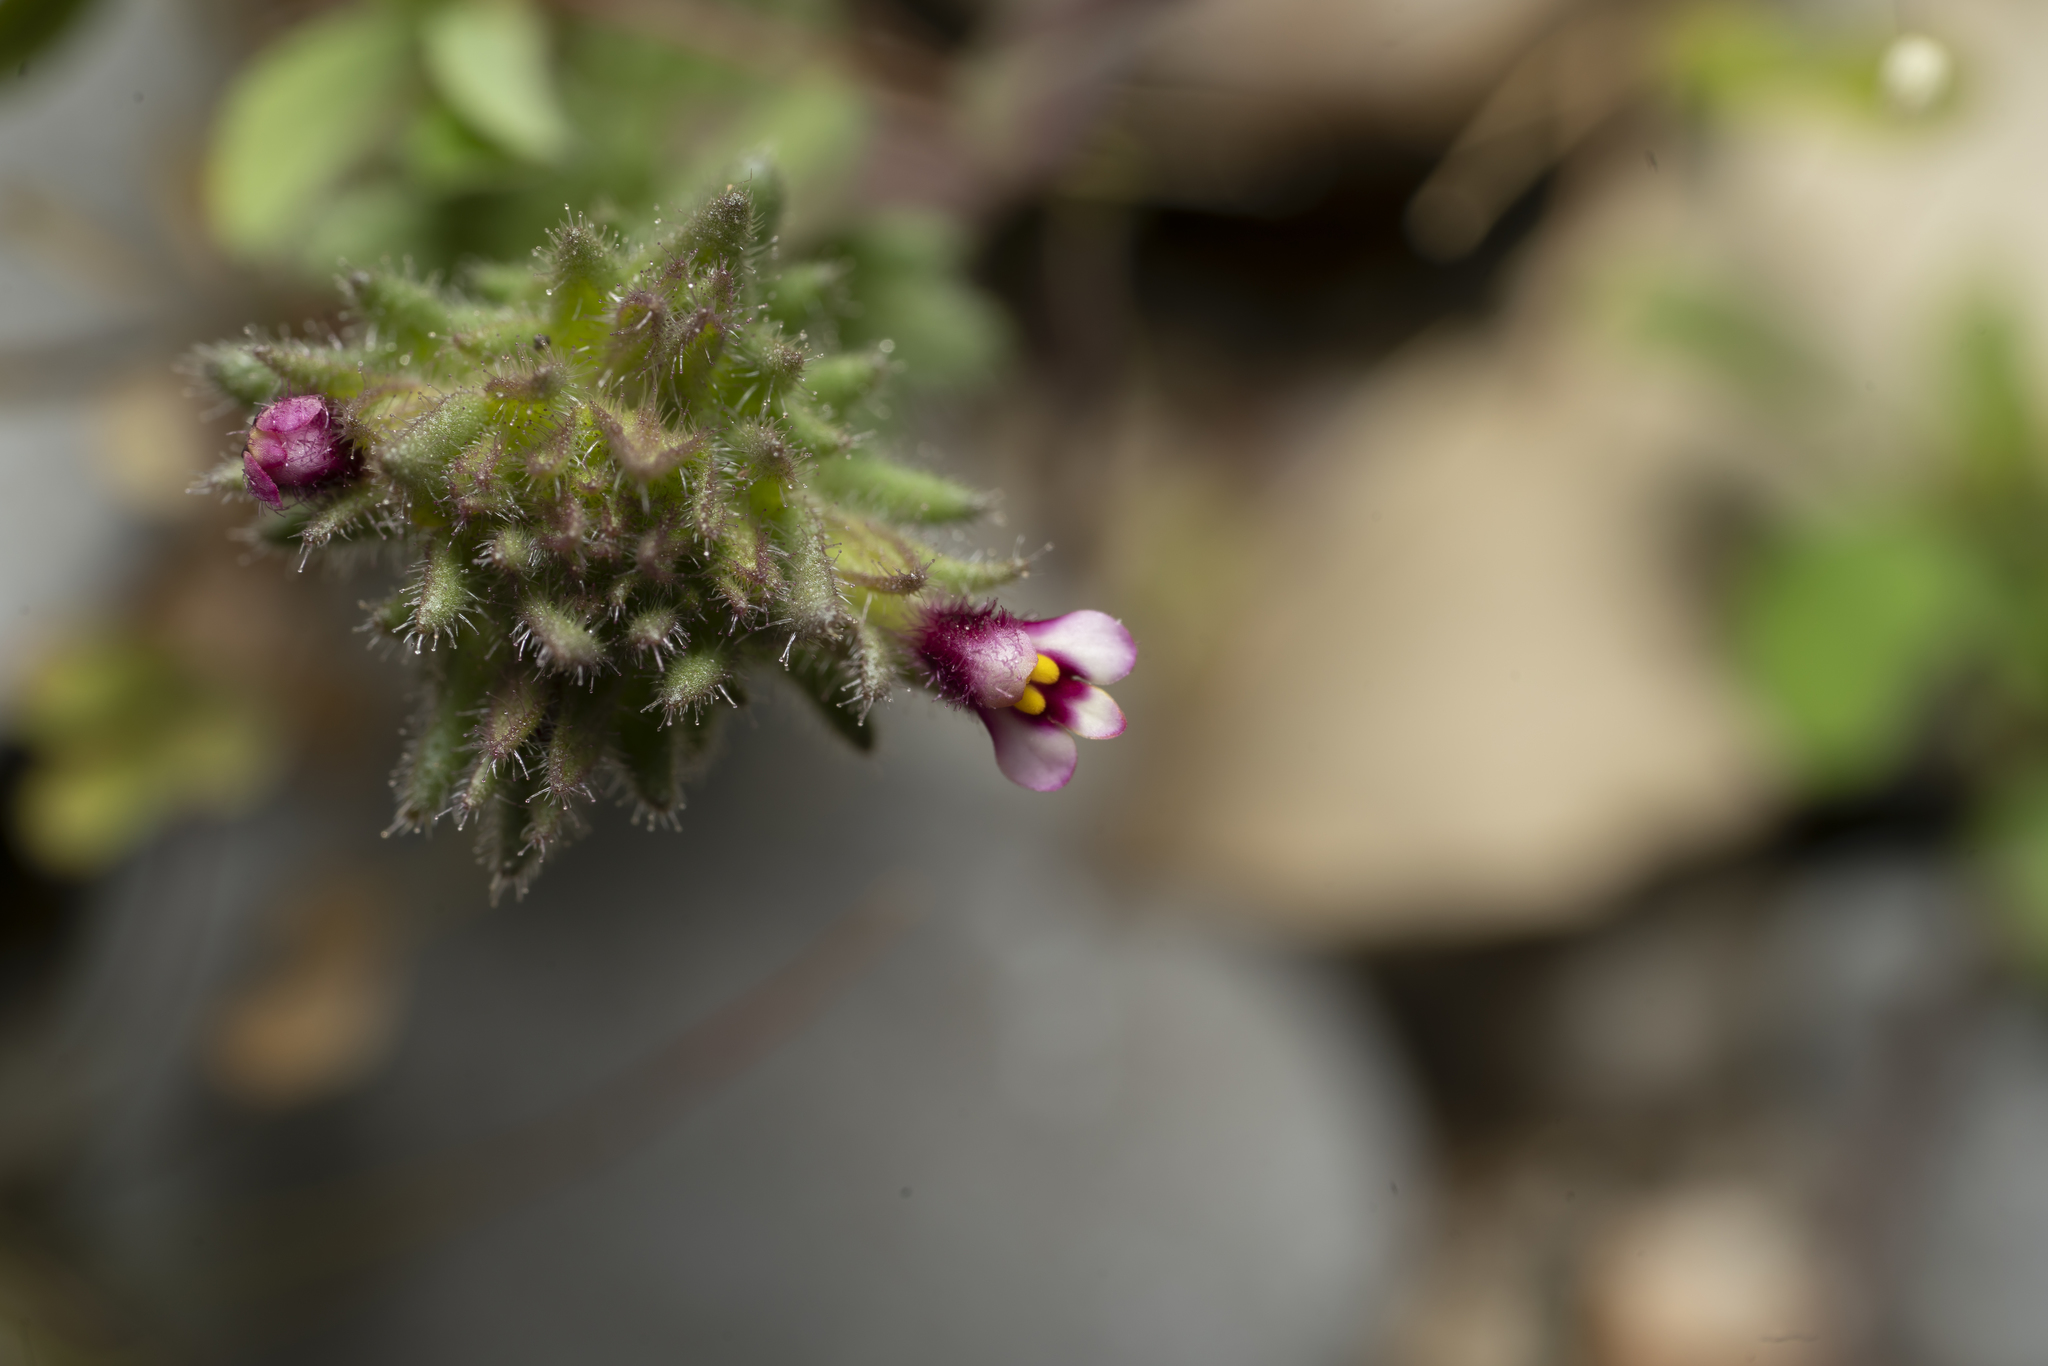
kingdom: Plantae
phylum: Tracheophyta
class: Magnoliopsida
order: Lamiales
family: Orobanchaceae
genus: Parentucellia
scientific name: Parentucellia latifolia
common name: Broadleaf glandweed
